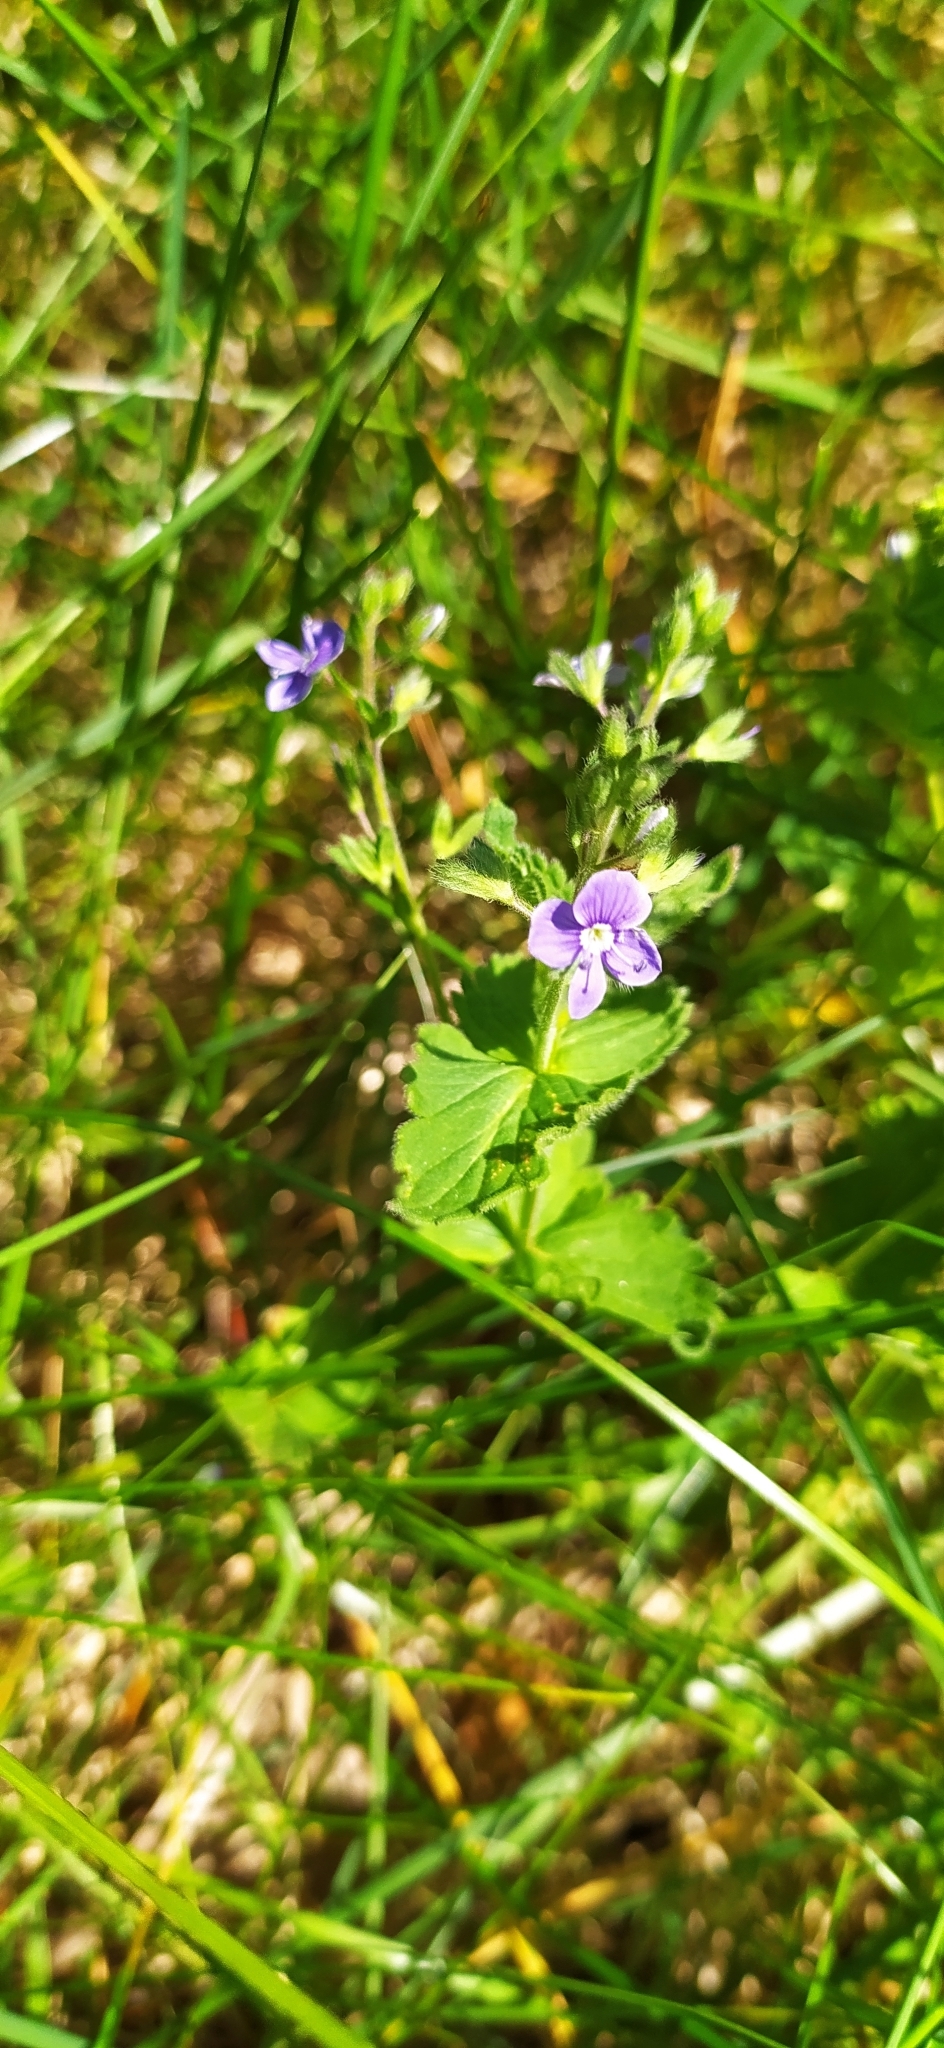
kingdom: Plantae
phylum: Tracheophyta
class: Magnoliopsida
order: Lamiales
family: Plantaginaceae
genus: Veronica
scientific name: Veronica chamaedrys
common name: Germander speedwell
